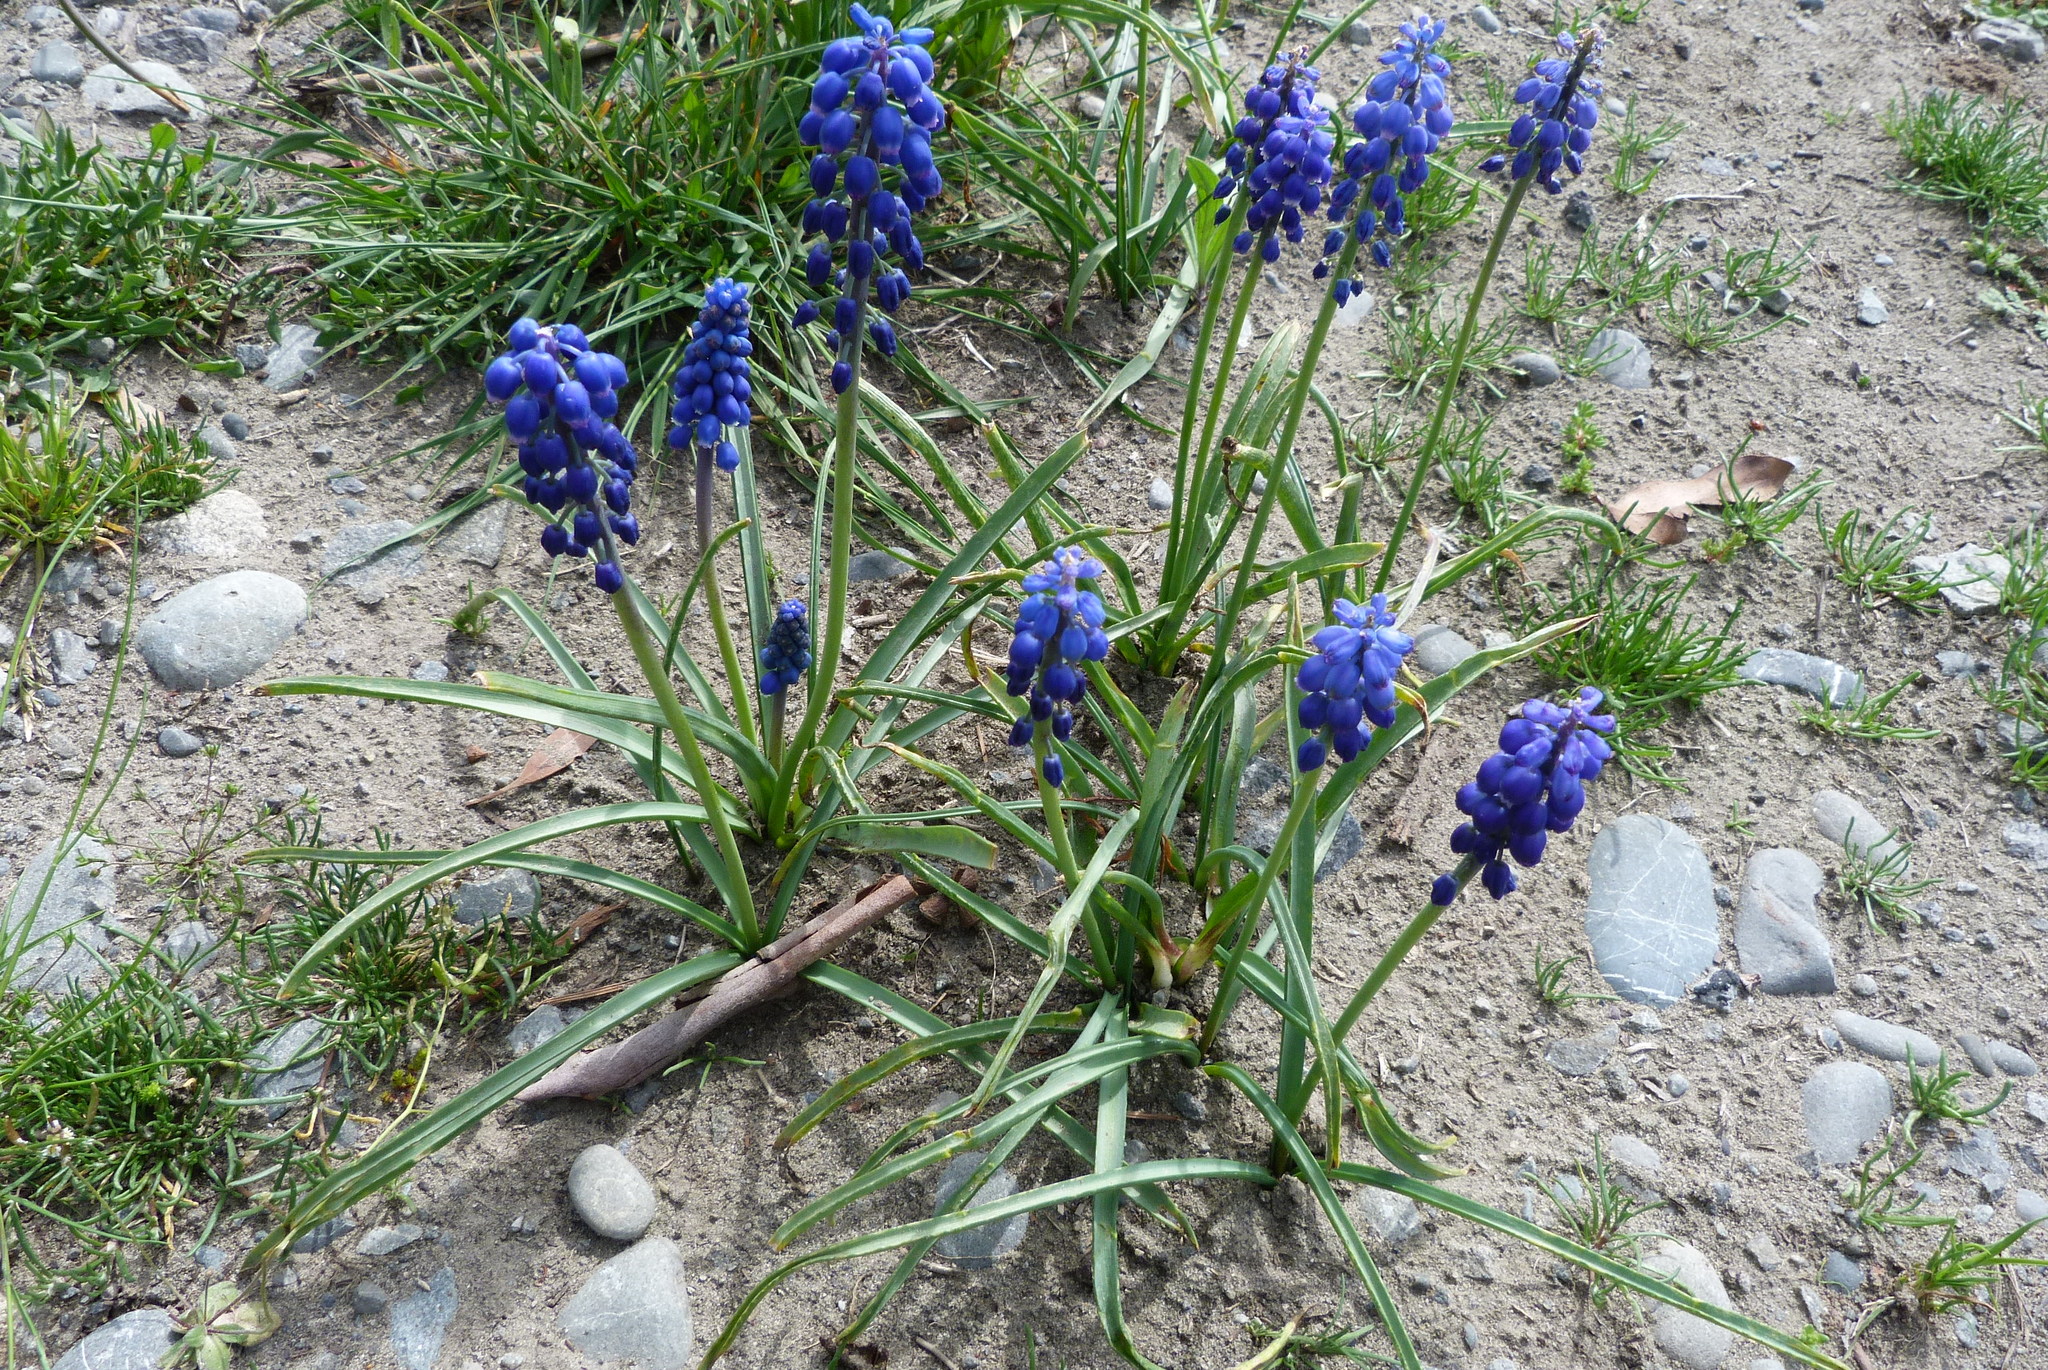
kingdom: Plantae
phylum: Tracheophyta
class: Liliopsida
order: Asparagales
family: Asparagaceae
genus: Muscari
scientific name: Muscari armeniacum
